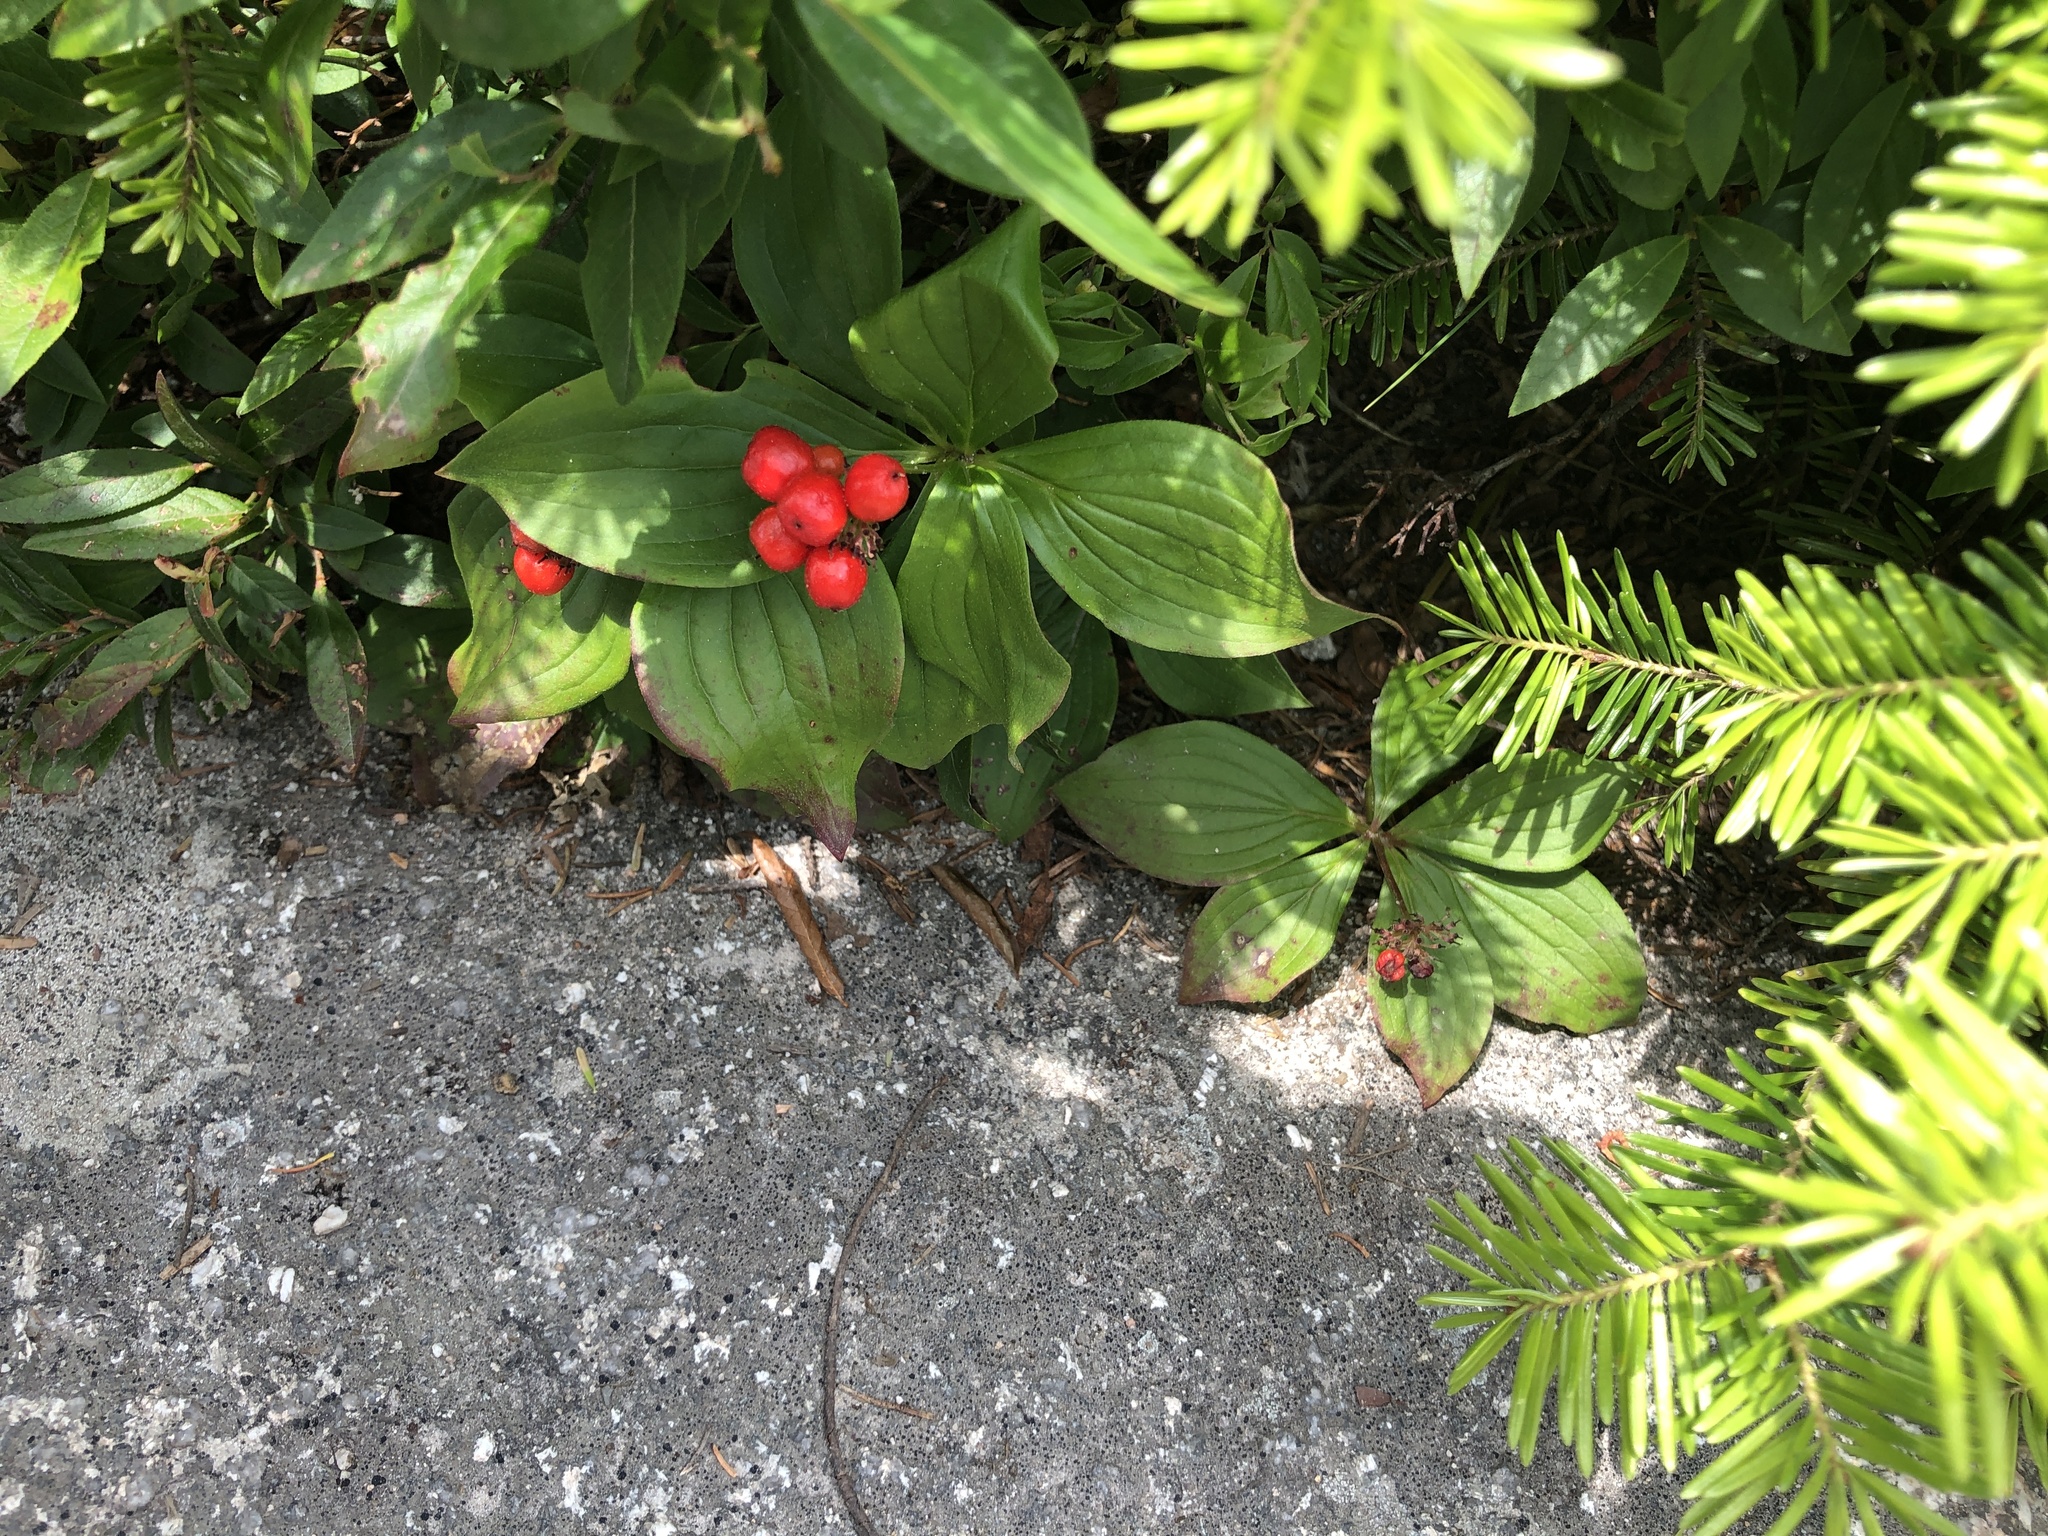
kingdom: Plantae
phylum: Tracheophyta
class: Magnoliopsida
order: Cornales
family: Cornaceae
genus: Cornus
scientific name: Cornus canadensis
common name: Creeping dogwood
